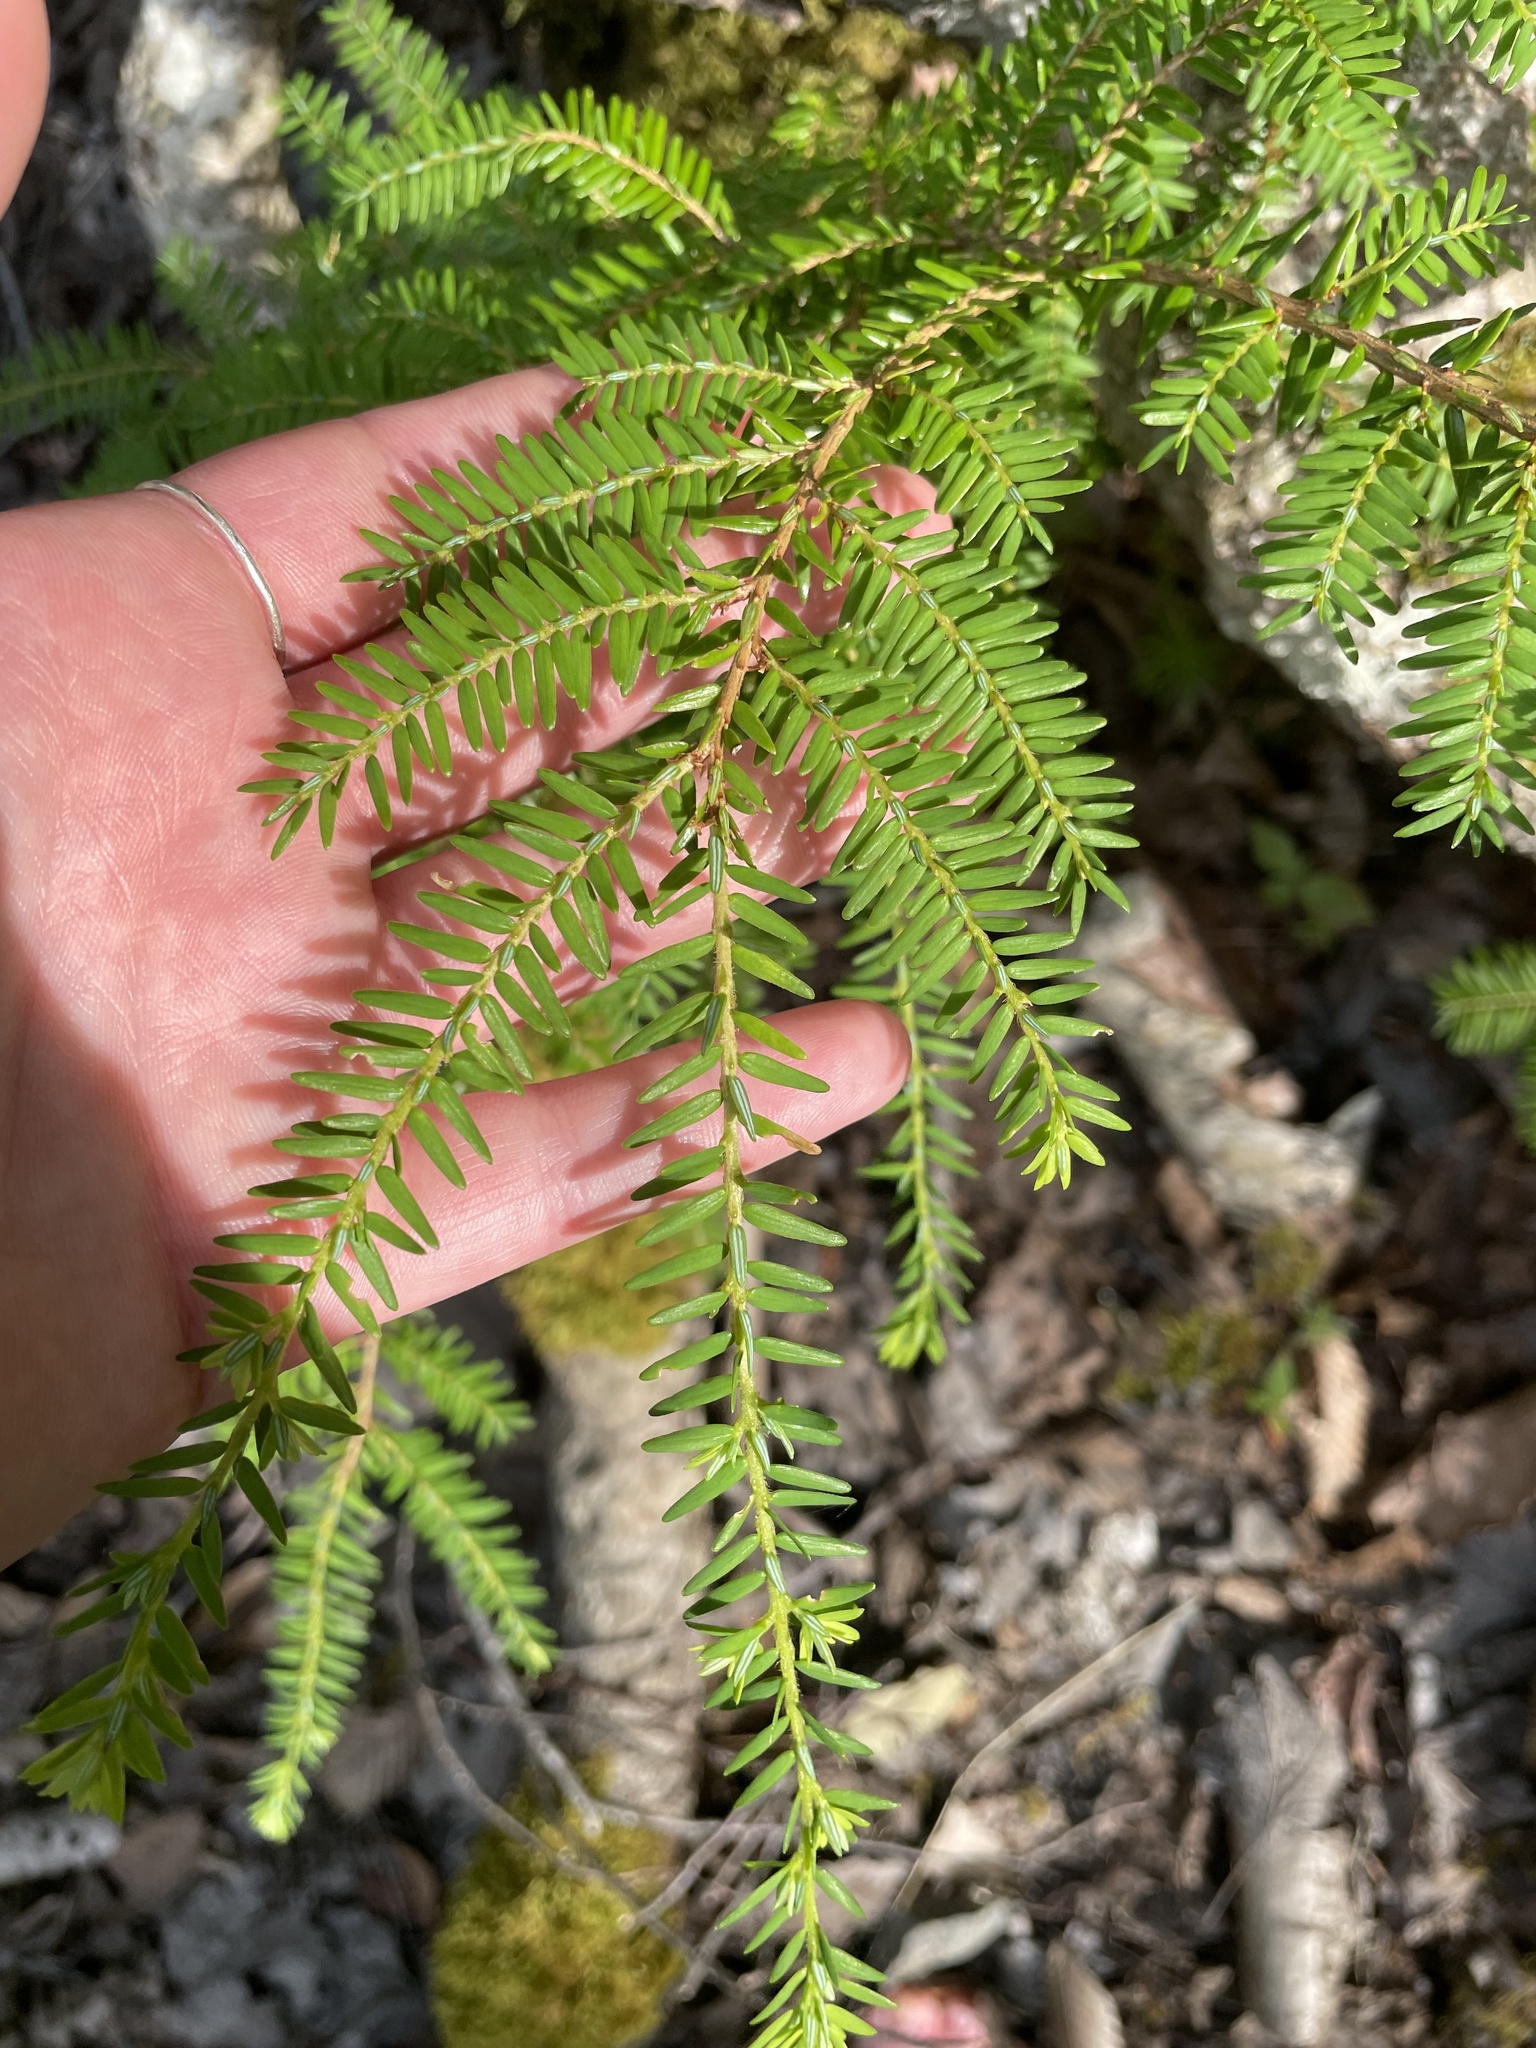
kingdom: Plantae
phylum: Tracheophyta
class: Pinopsida
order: Pinales
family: Pinaceae
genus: Tsuga
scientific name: Tsuga canadensis
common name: Eastern hemlock
